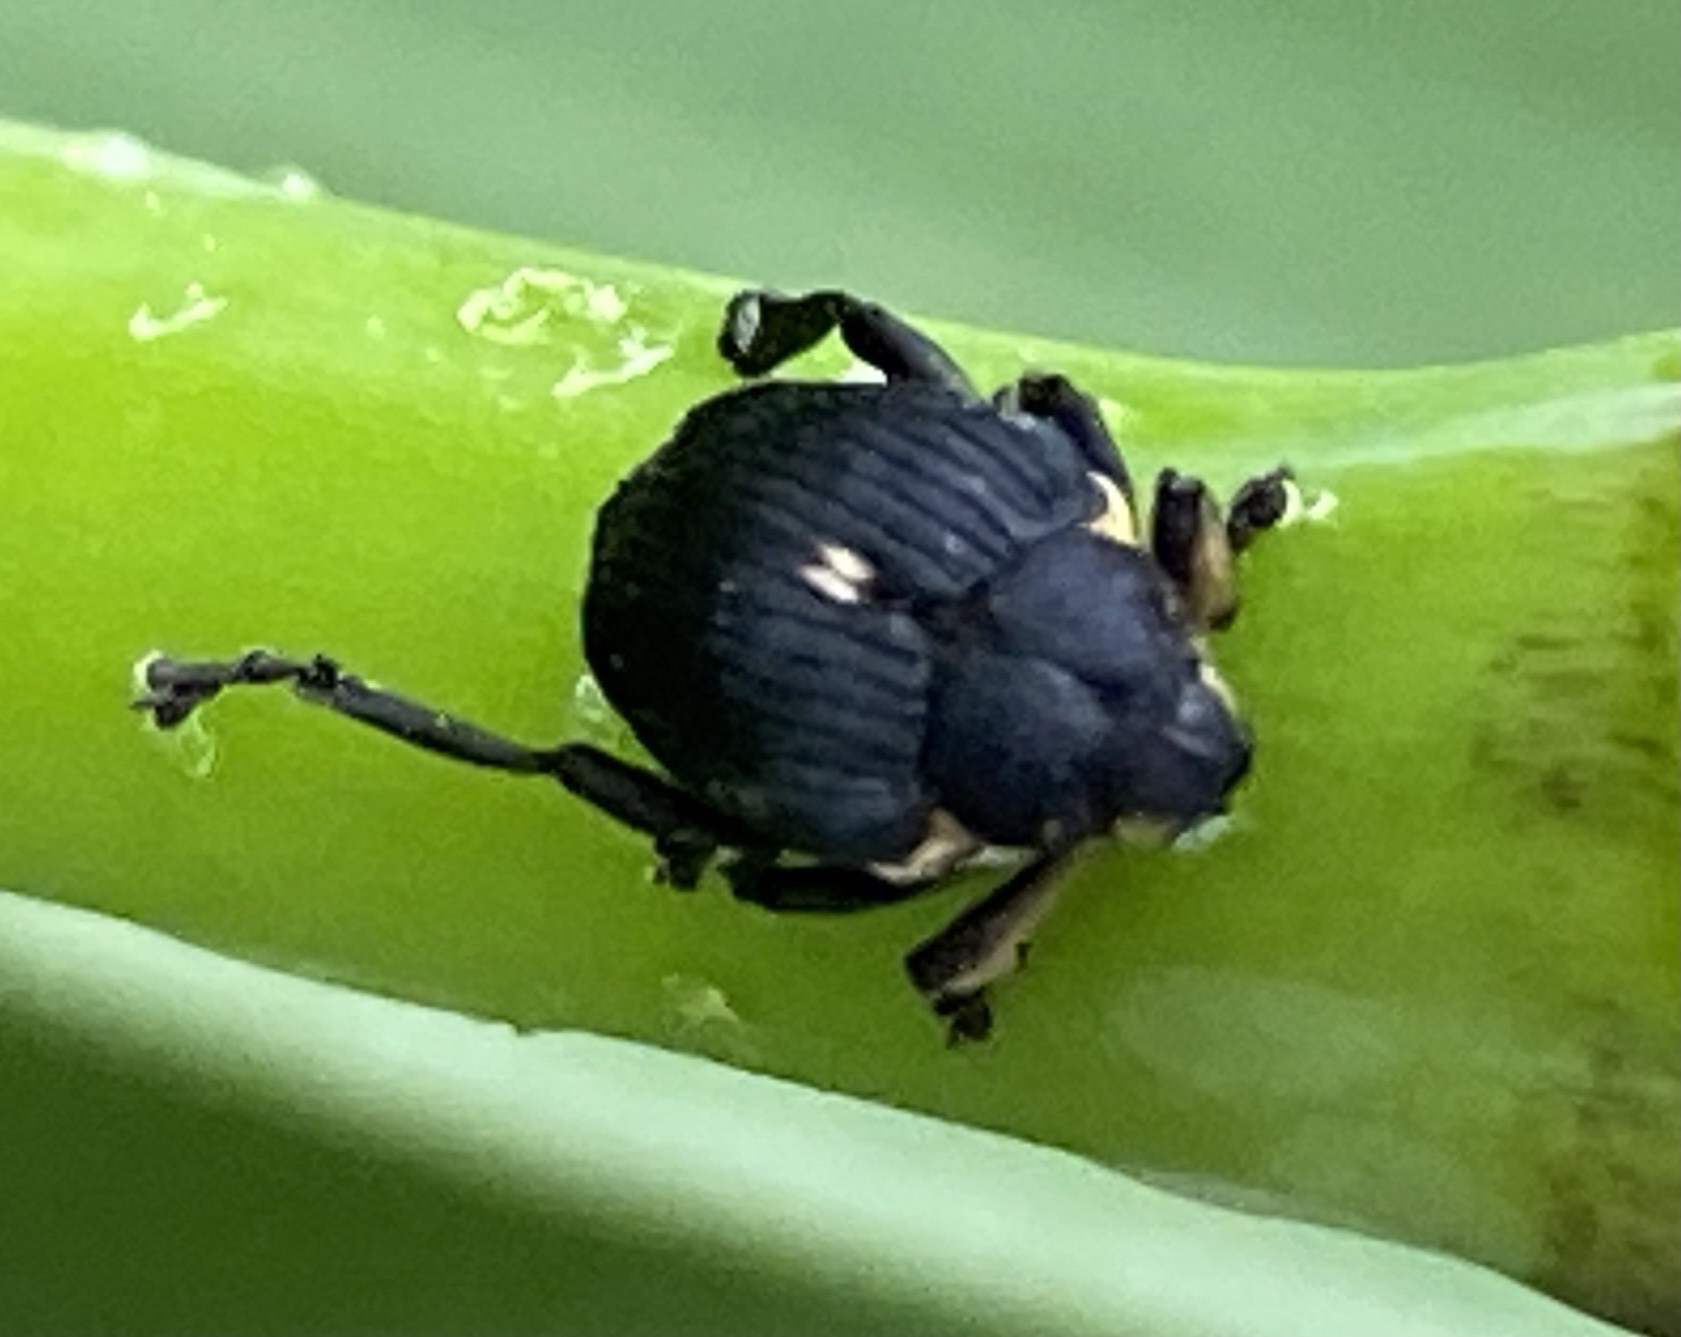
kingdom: Animalia
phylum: Arthropoda
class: Insecta
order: Coleoptera
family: Curculionidae
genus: Mononychus
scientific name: Mononychus punctumalbum
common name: Iris weevil
